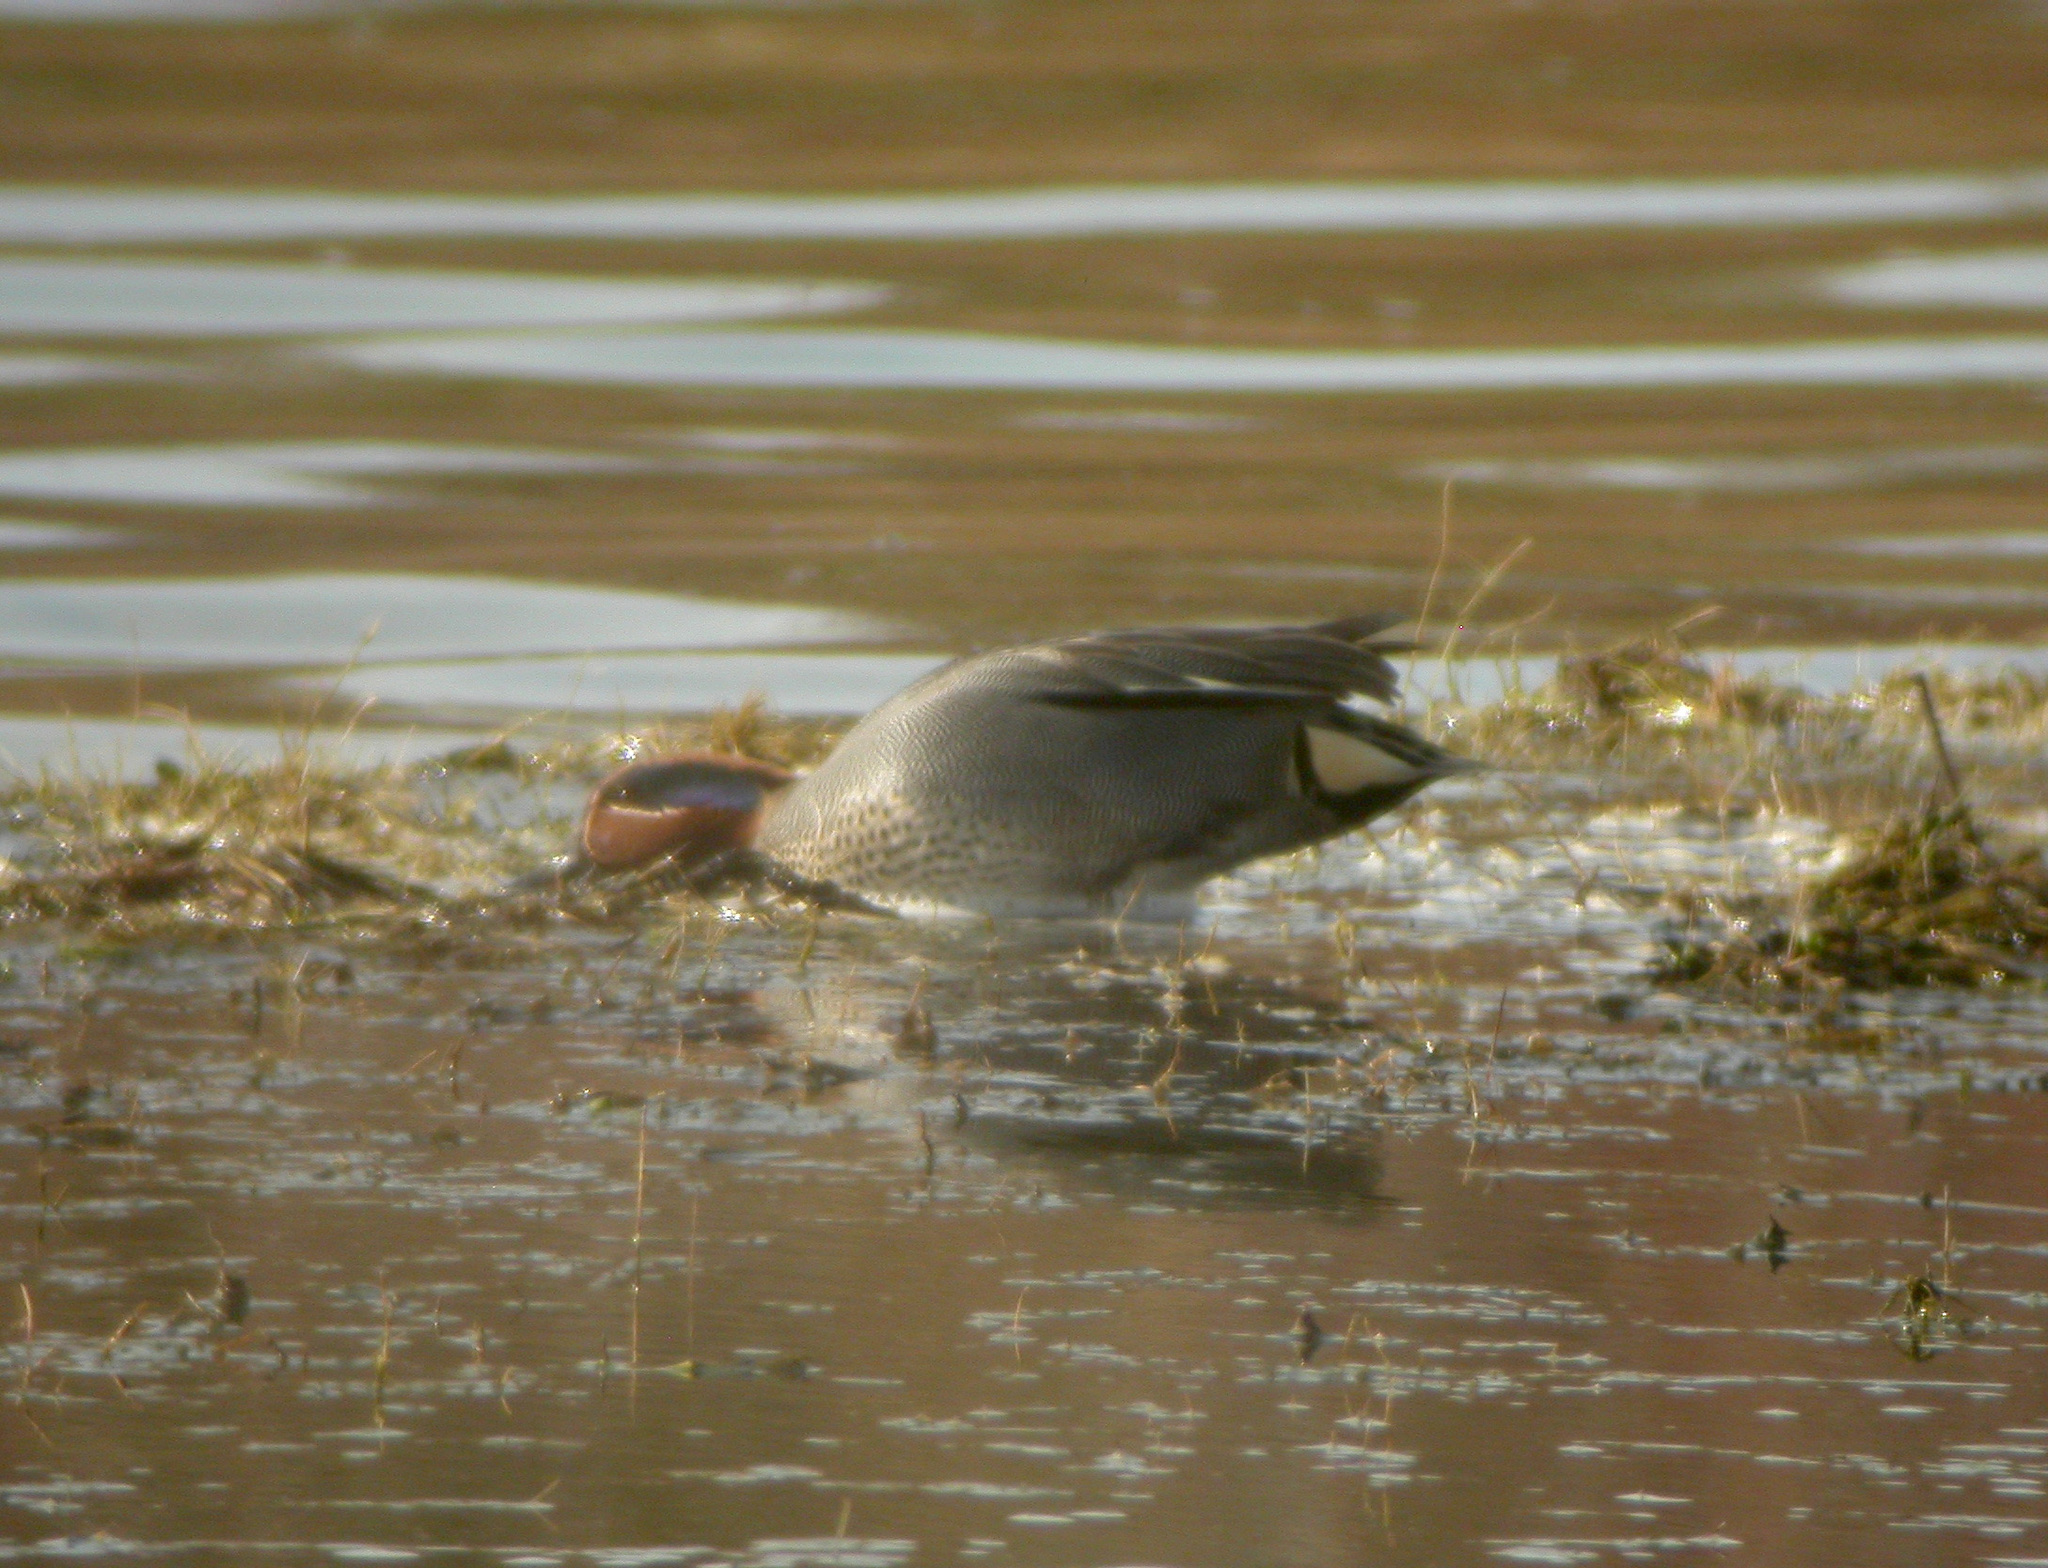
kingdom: Animalia
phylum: Chordata
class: Aves
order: Anseriformes
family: Anatidae
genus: Anas
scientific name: Anas crecca
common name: Eurasian teal
